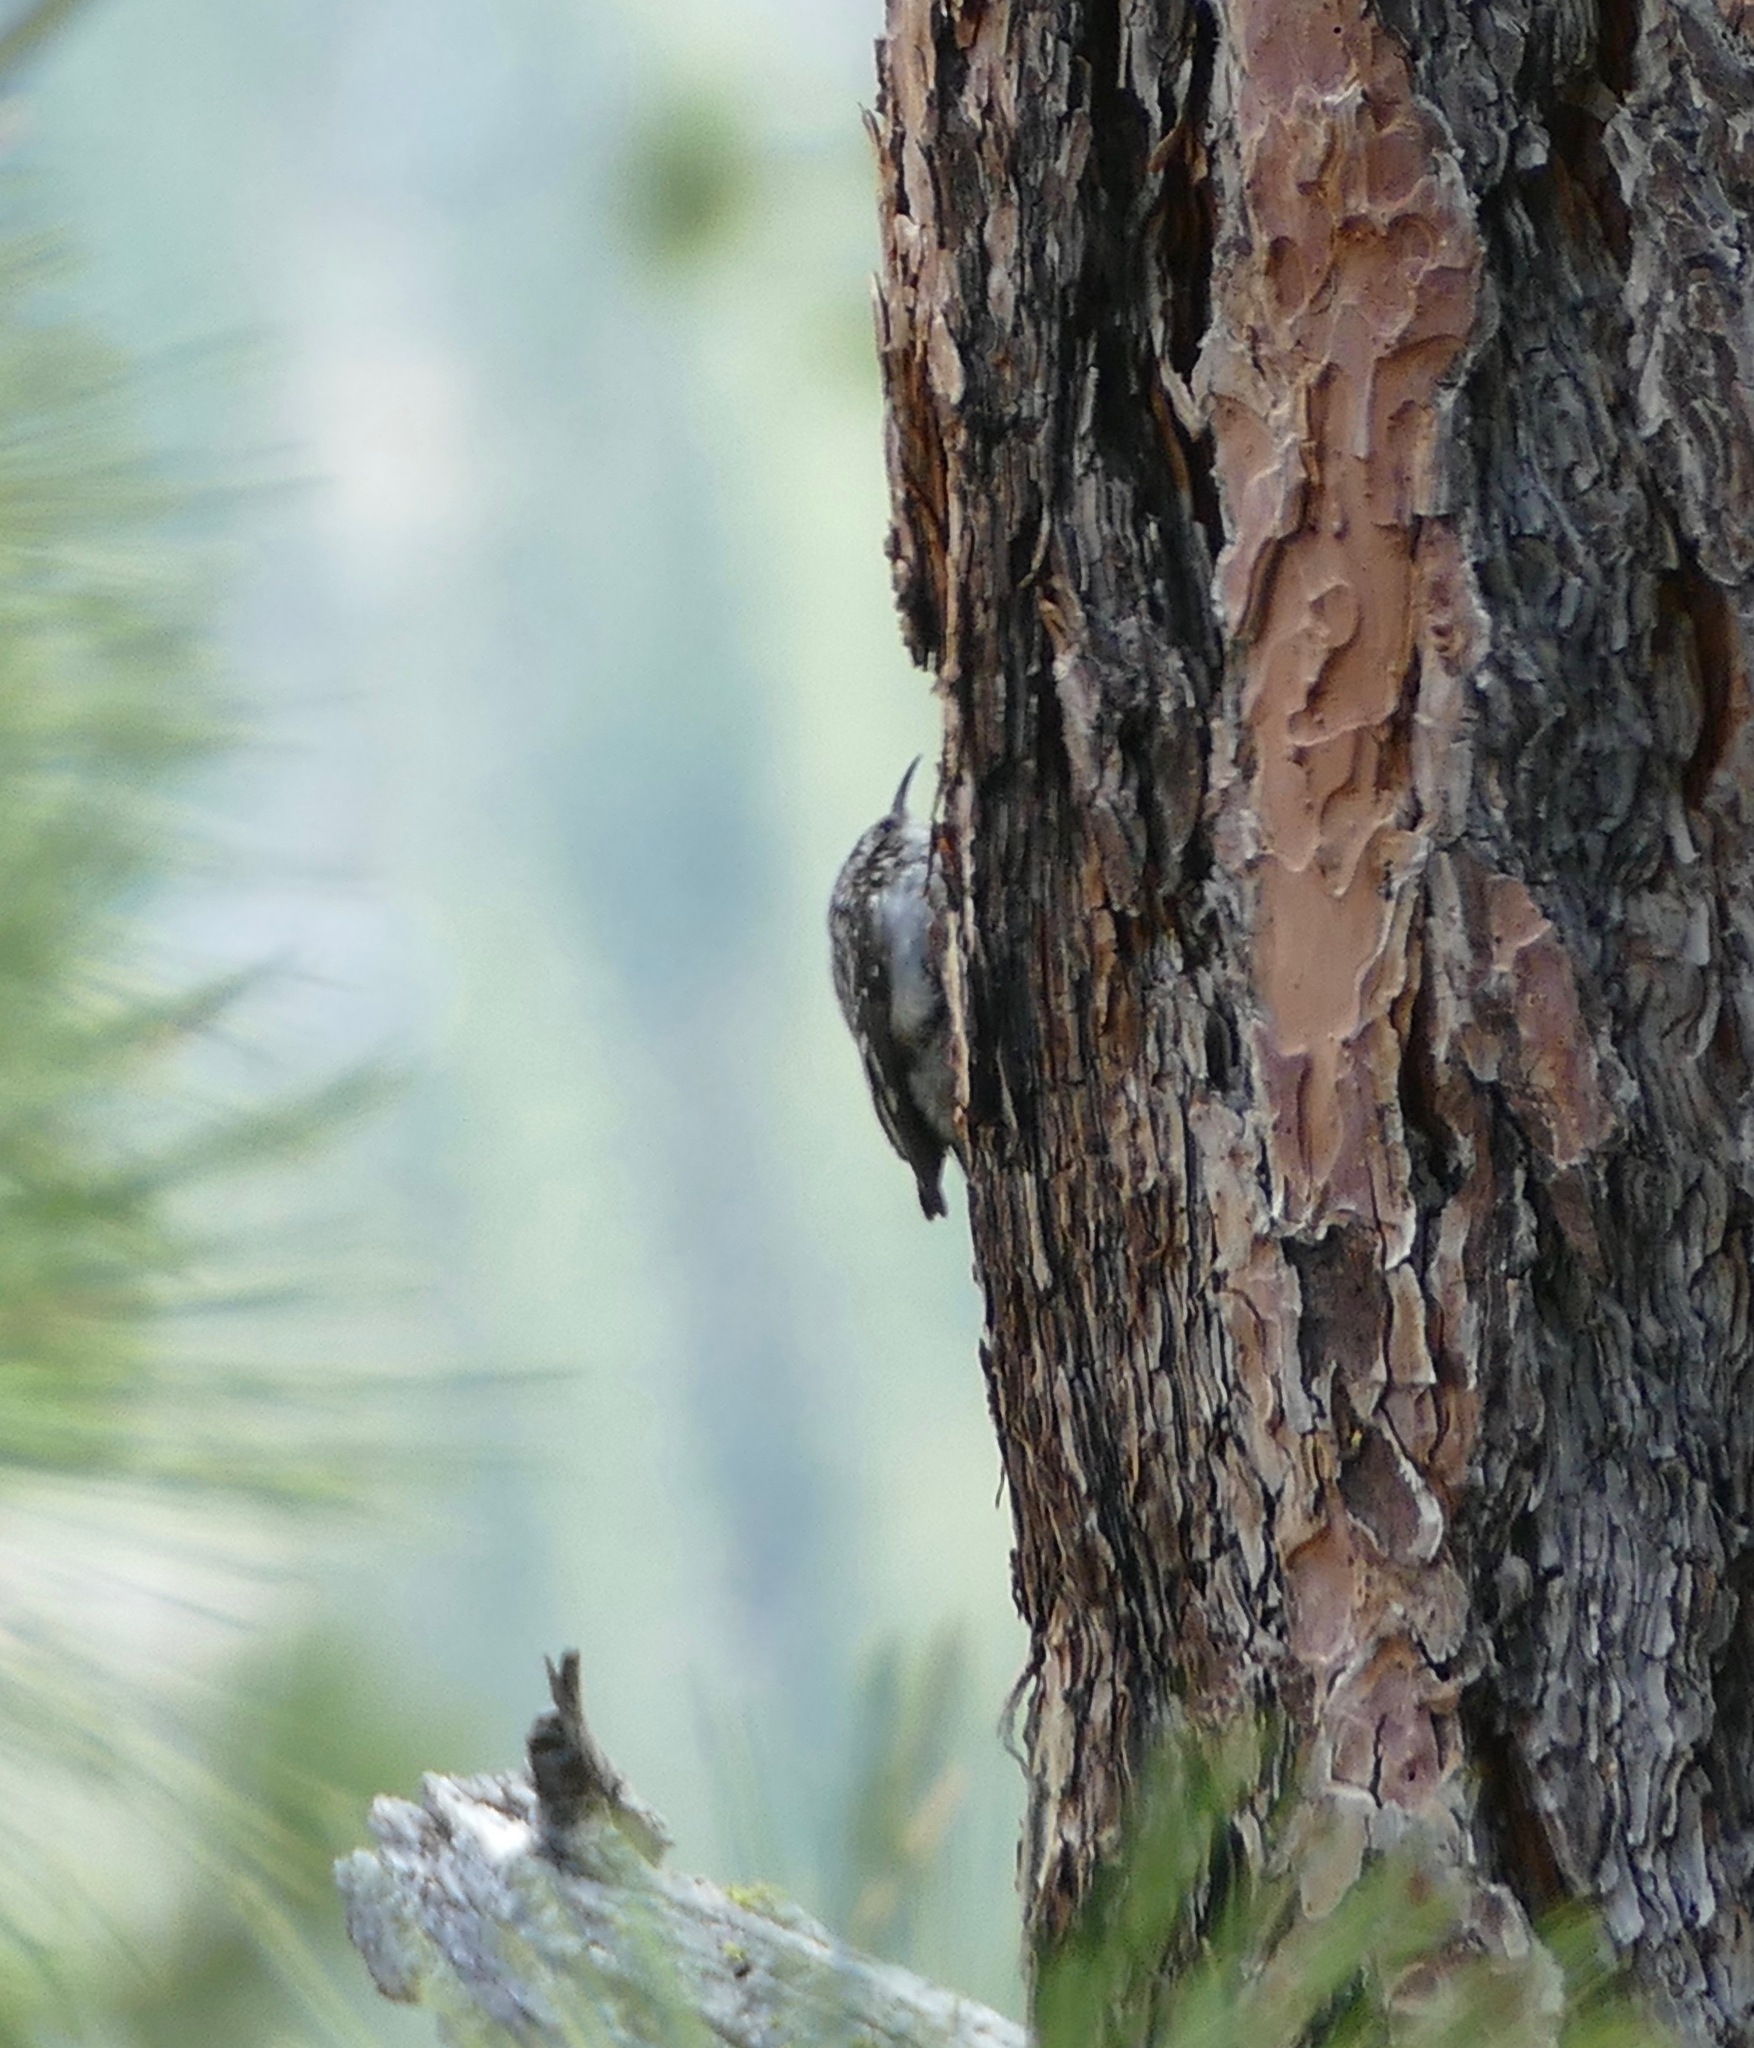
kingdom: Animalia
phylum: Chordata
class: Aves
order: Passeriformes
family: Certhiidae
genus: Certhia
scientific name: Certhia americana
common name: Brown creeper
